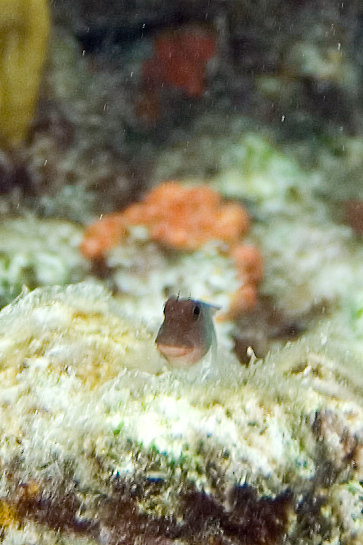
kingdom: Animalia
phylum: Chordata
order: Perciformes
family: Blenniidae
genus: Ophioblennius
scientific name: Ophioblennius macclurei
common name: Redlip blenny
